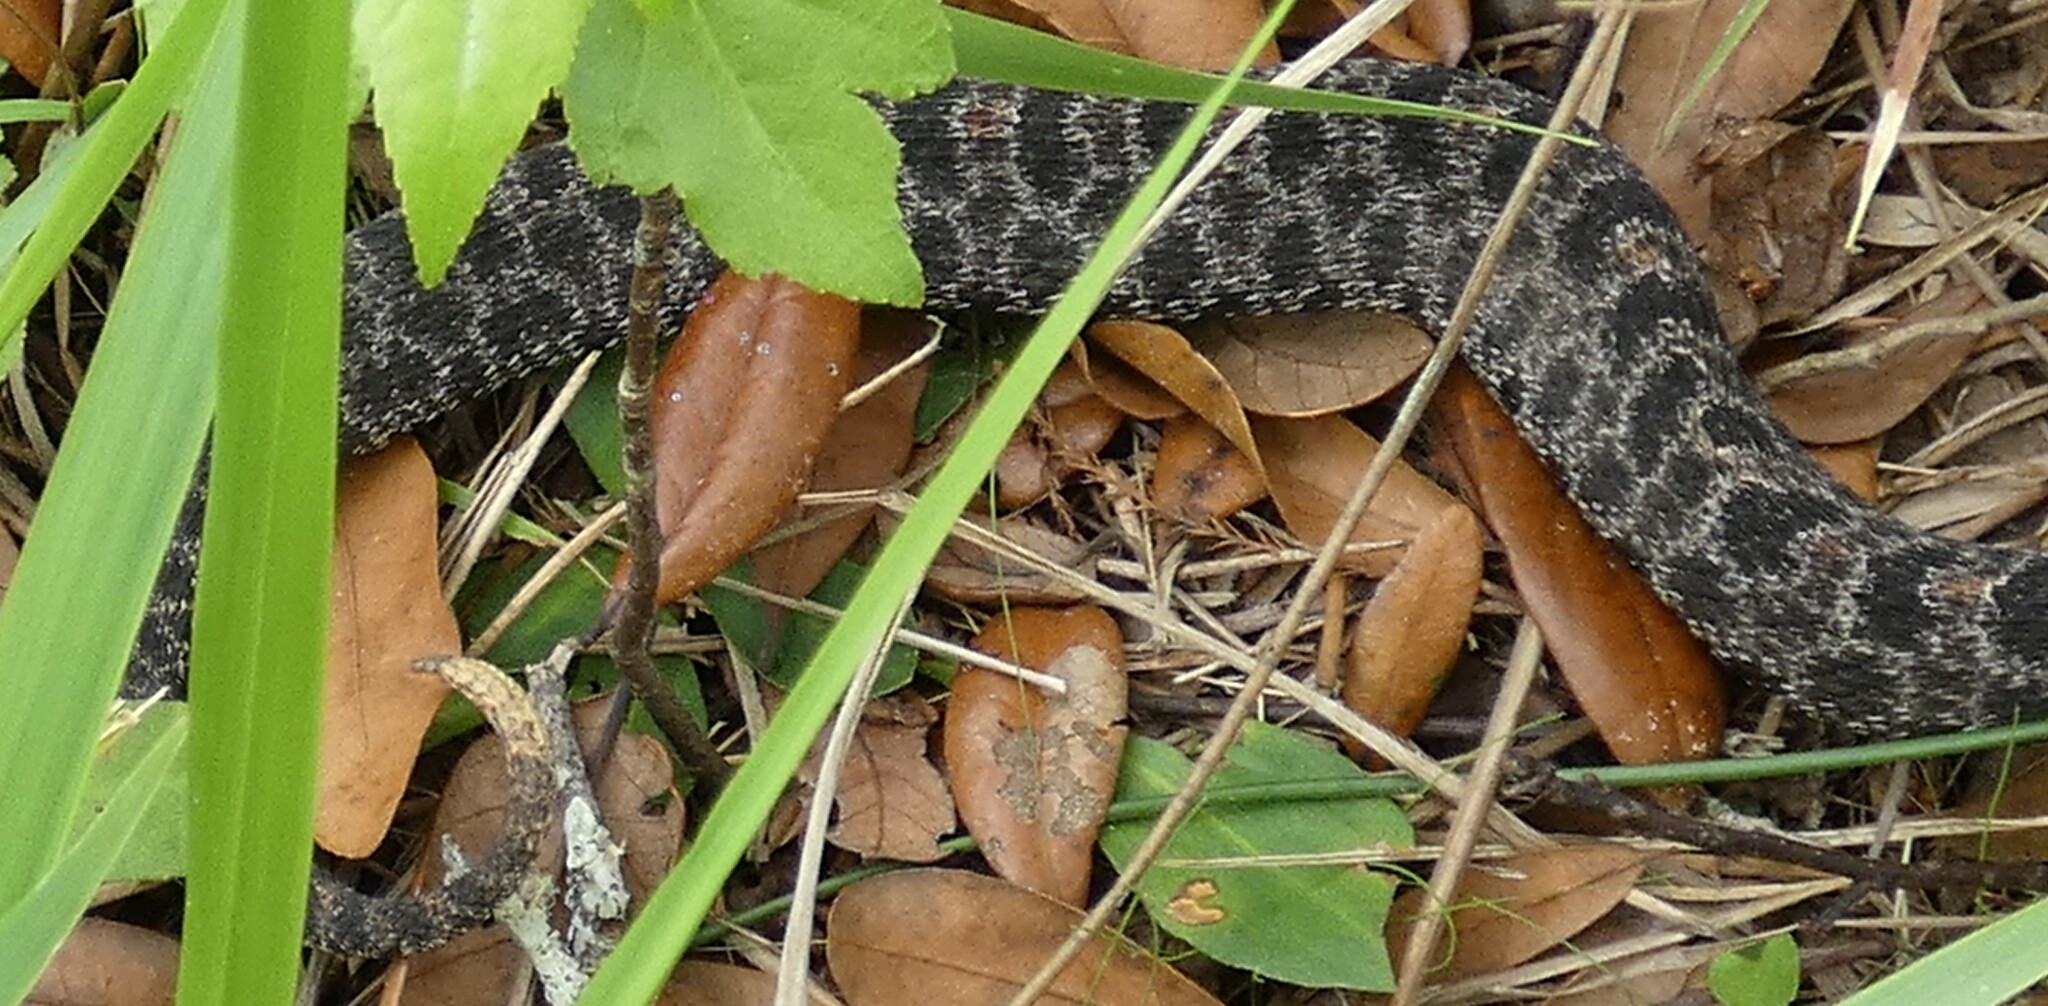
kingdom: Animalia
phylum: Chordata
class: Squamata
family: Viperidae
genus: Sistrurus
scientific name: Sistrurus miliarius
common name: Pygmy rattlesnake
